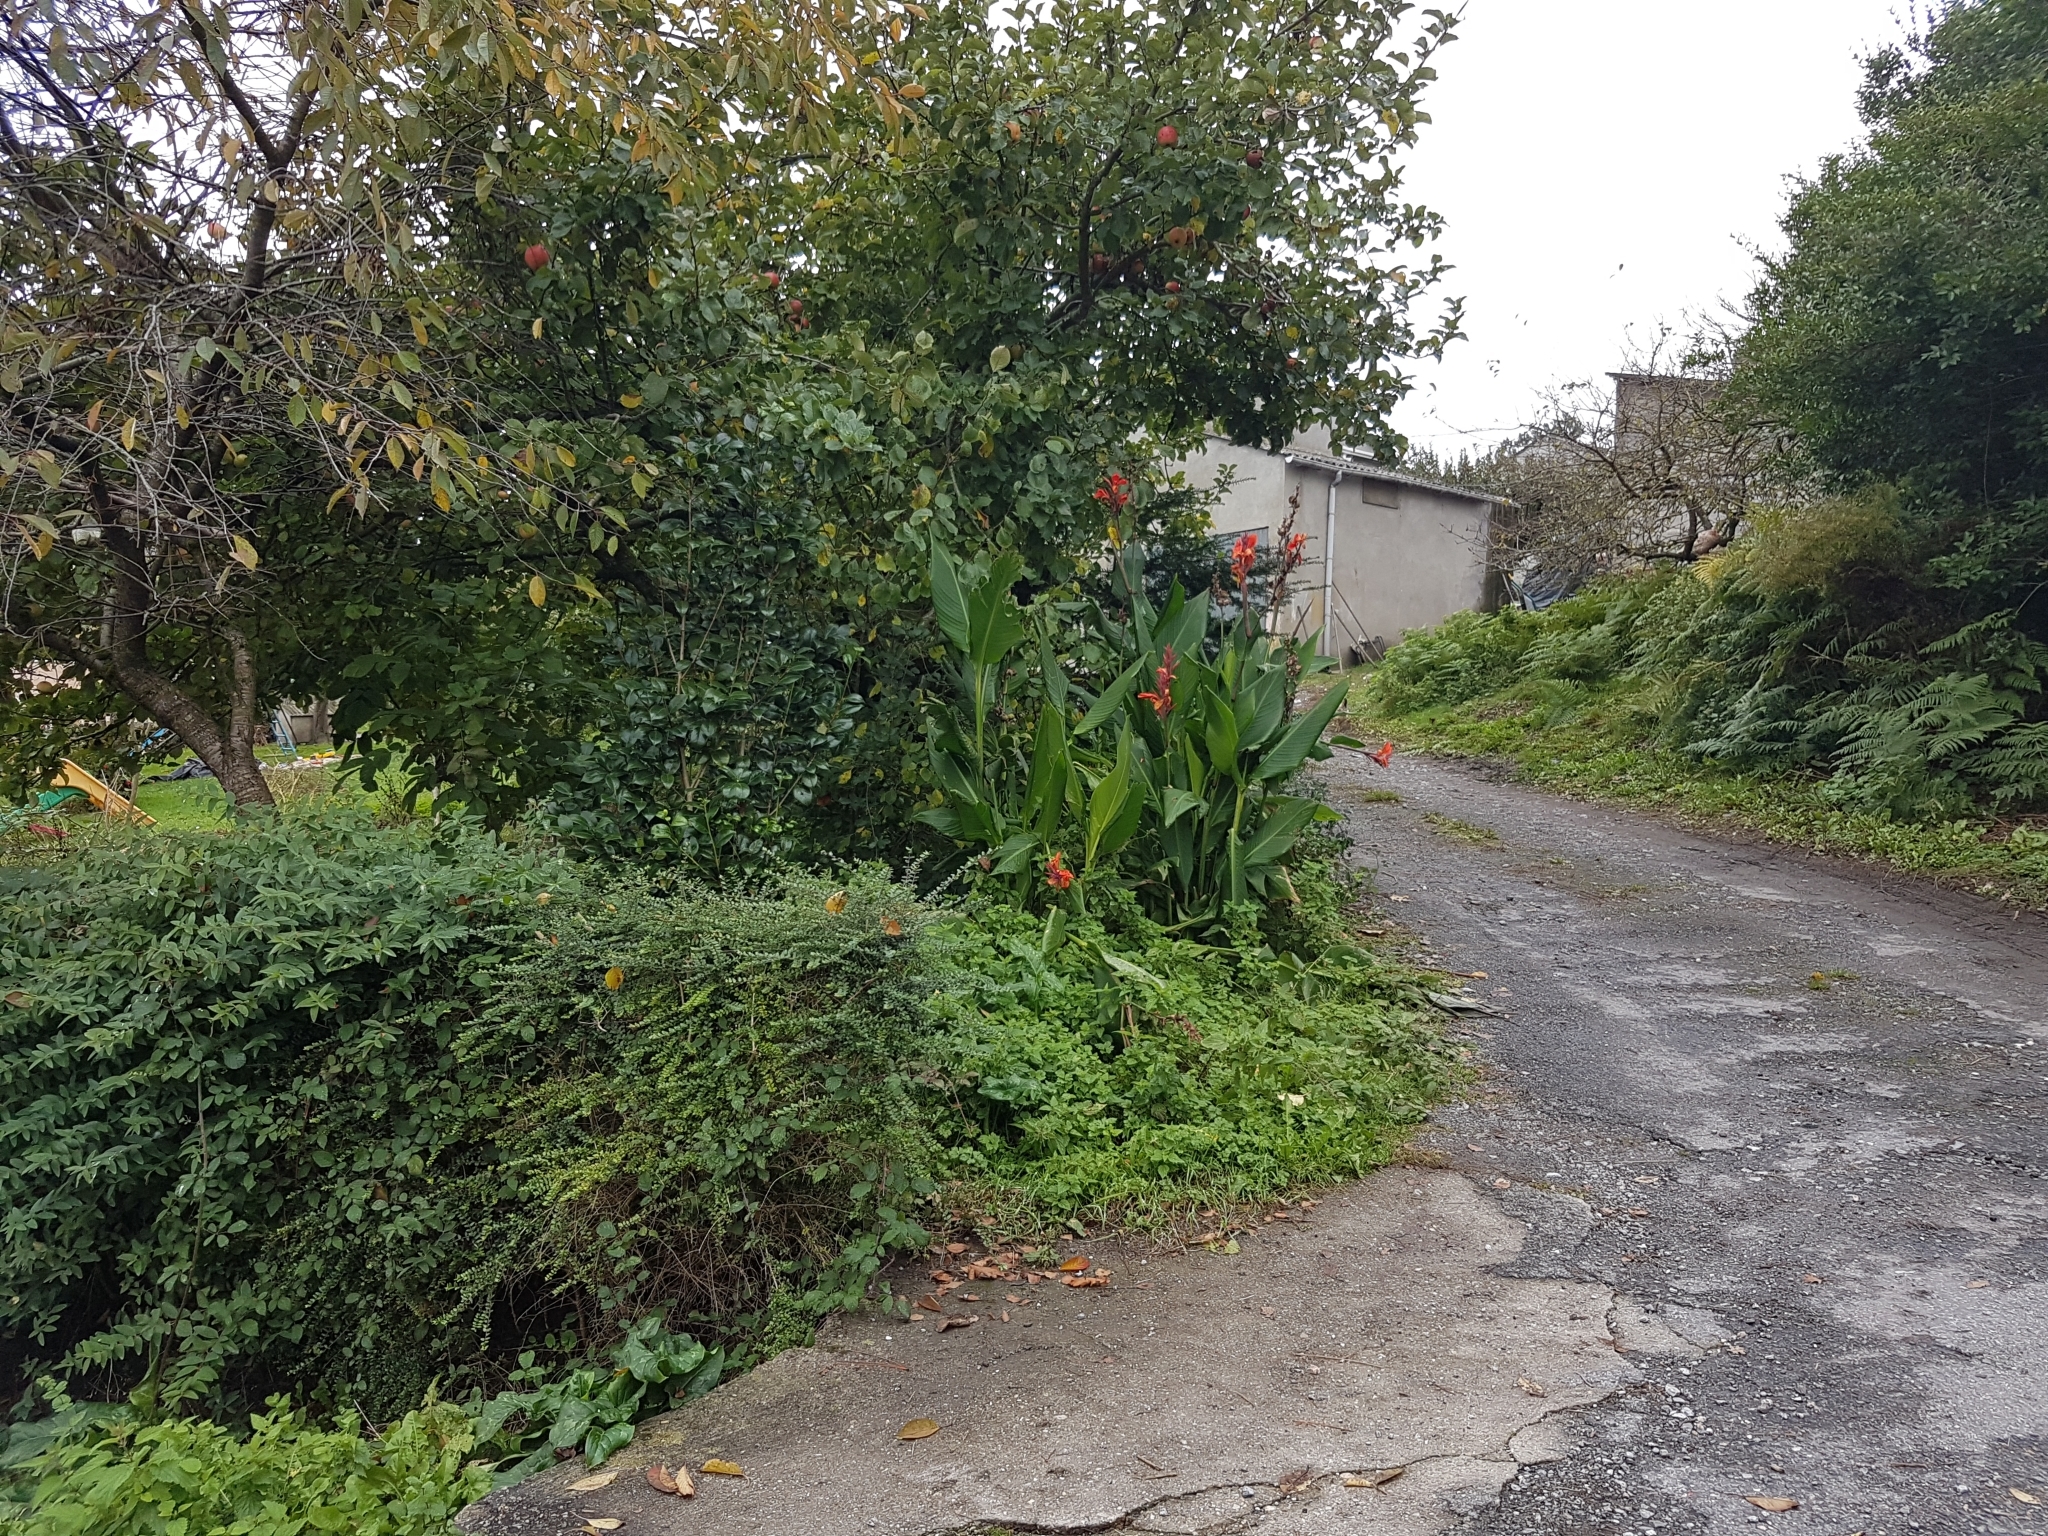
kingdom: Plantae
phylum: Tracheophyta
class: Liliopsida
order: Zingiberales
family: Cannaceae
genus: Canna
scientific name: Canna indica
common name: Indian shot
